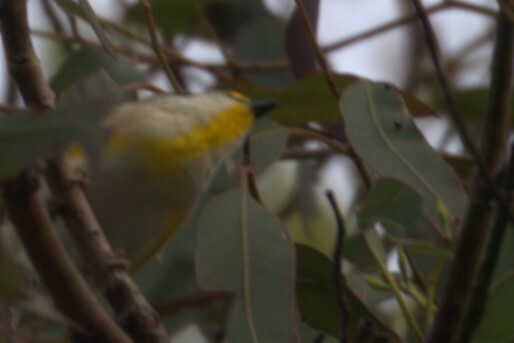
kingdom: Animalia
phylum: Chordata
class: Aves
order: Passeriformes
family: Pardalotidae
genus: Pardalotus
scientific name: Pardalotus striatus
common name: Striated pardalote
